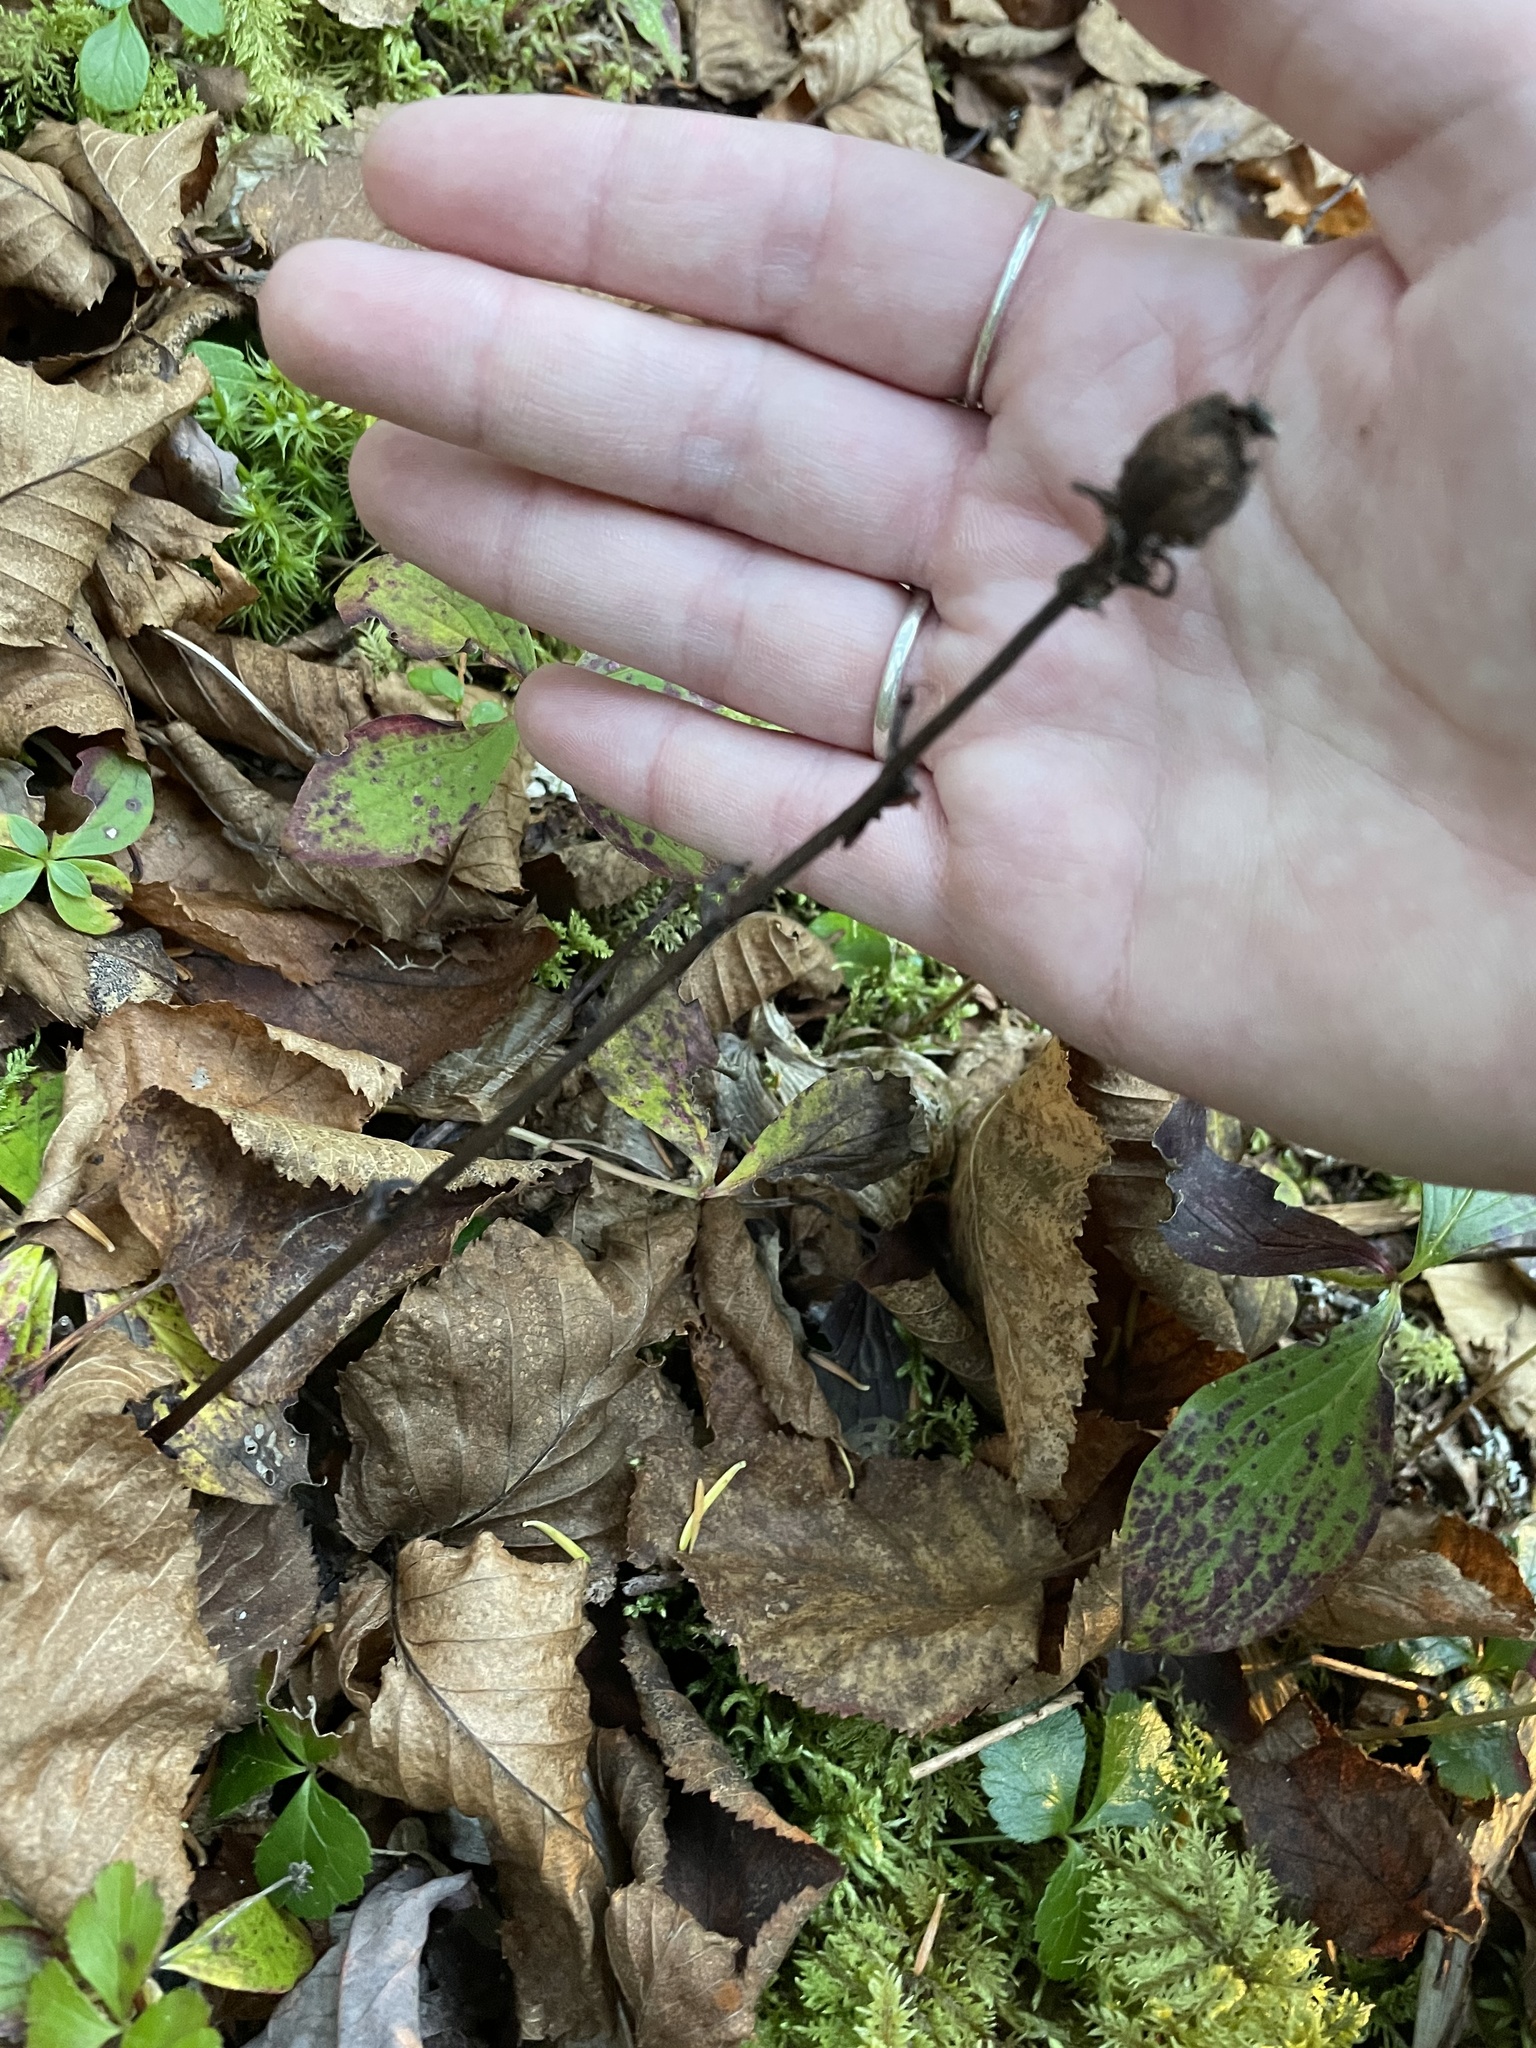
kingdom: Plantae
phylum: Tracheophyta
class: Magnoliopsida
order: Ericales
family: Ericaceae
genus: Monotropa
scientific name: Monotropa uniflora
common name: Convulsion root
